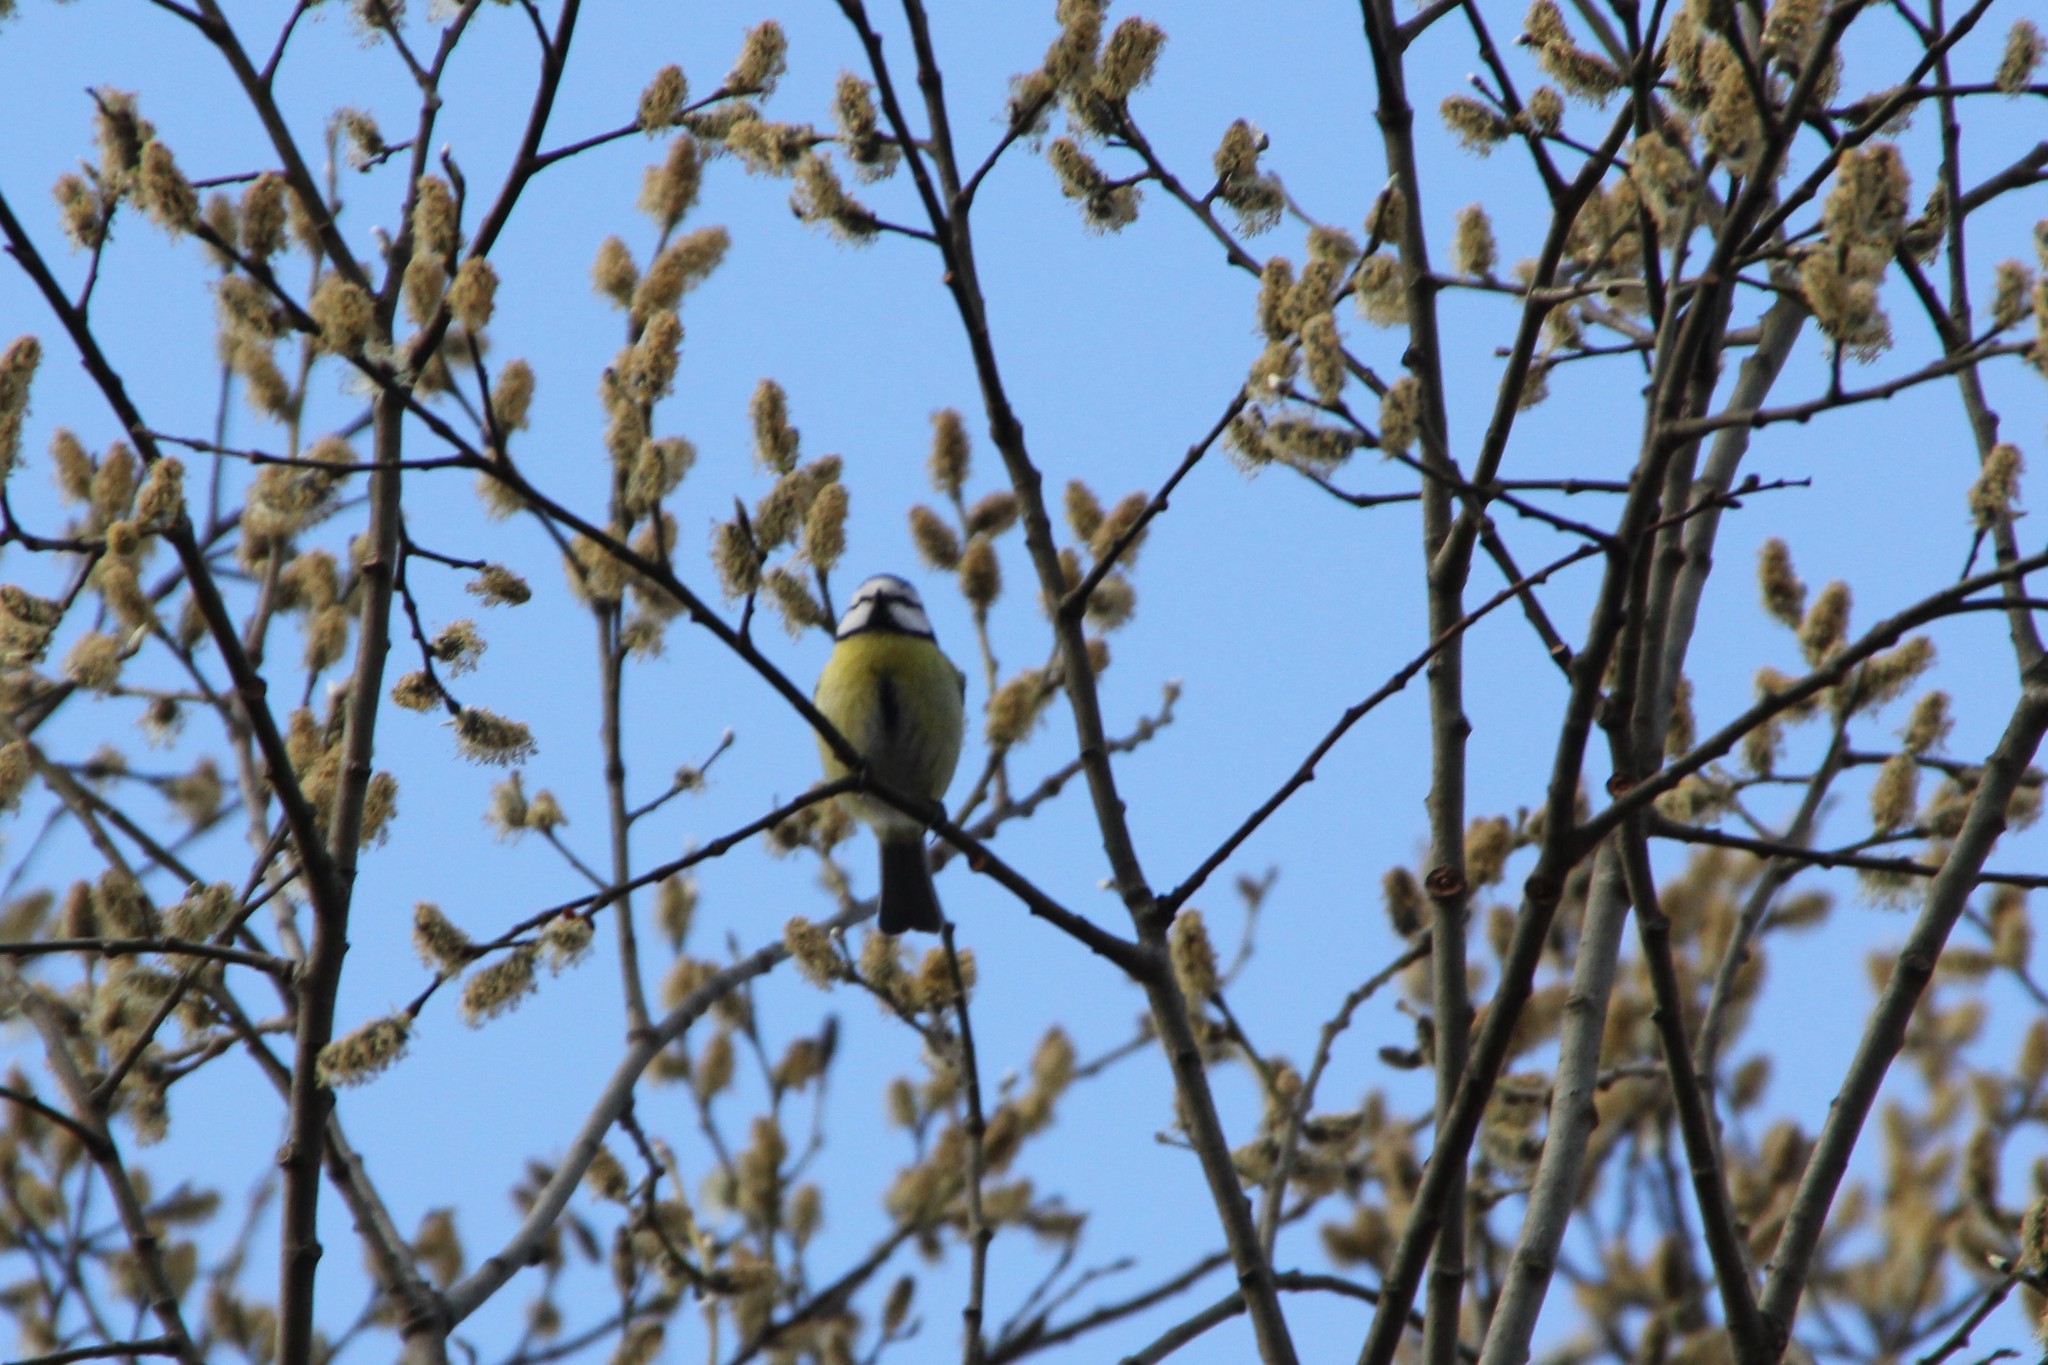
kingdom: Animalia
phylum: Chordata
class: Aves
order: Passeriformes
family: Paridae
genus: Cyanistes
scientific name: Cyanistes caeruleus
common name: Eurasian blue tit
